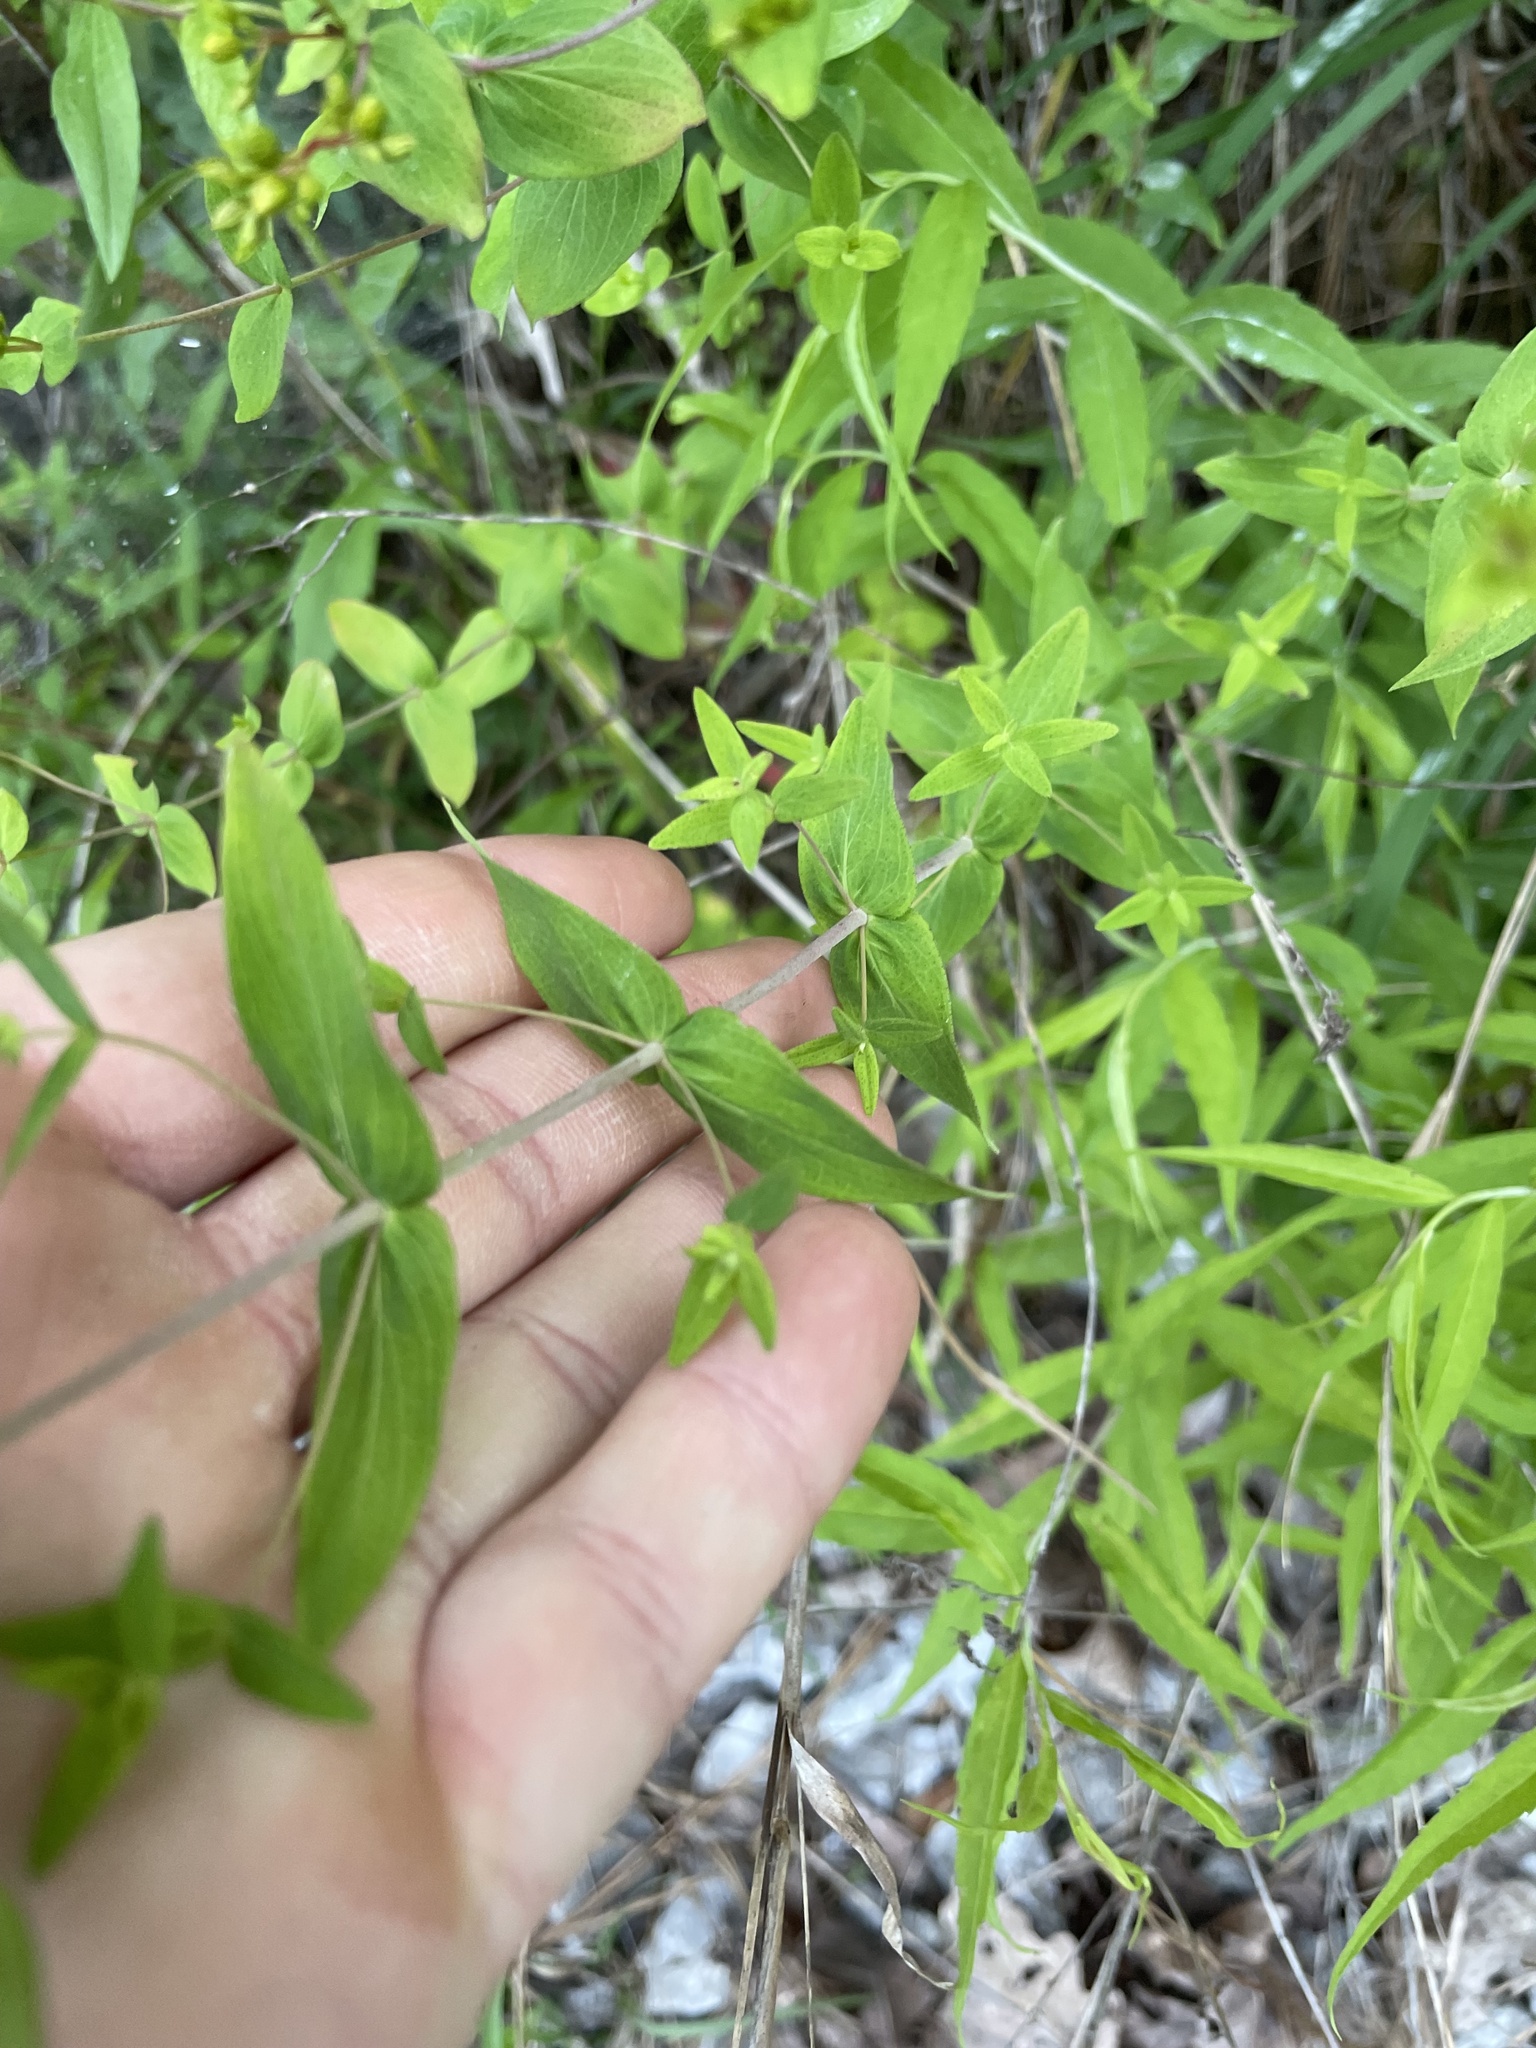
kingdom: Plantae
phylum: Tracheophyta
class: Magnoliopsida
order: Malpighiales
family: Hypericaceae
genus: Hypericum
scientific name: Hypericum pseudomaculatum
